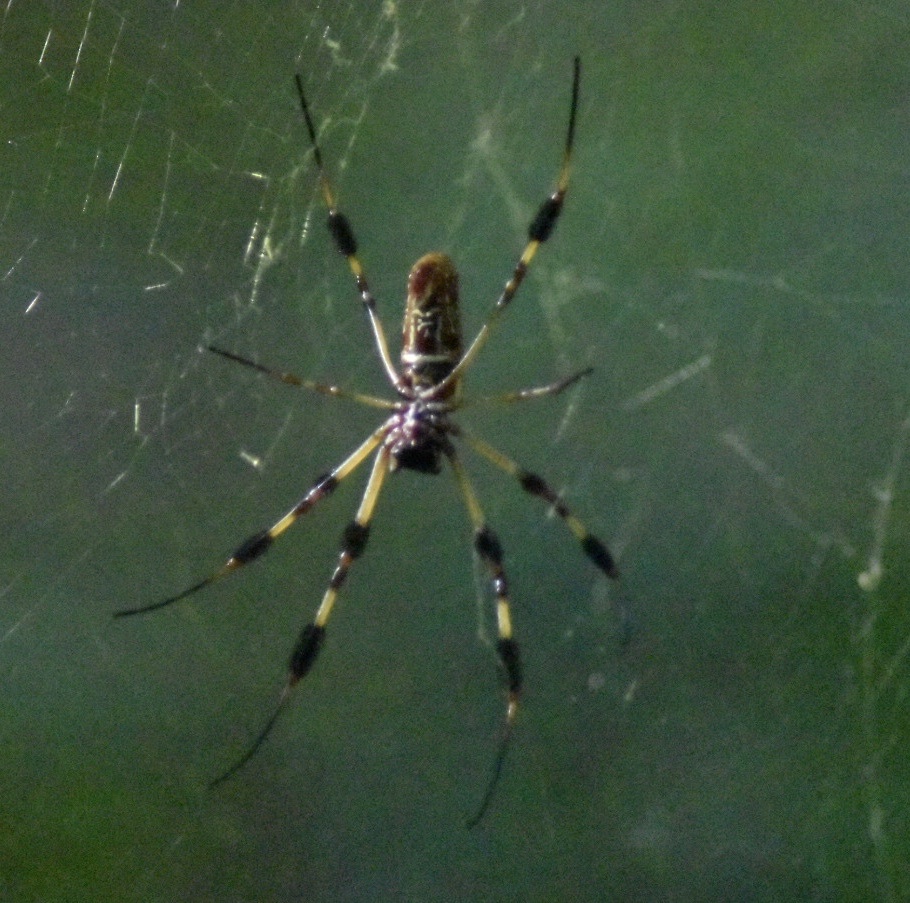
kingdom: Animalia
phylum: Arthropoda
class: Arachnida
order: Araneae
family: Araneidae
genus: Trichonephila
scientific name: Trichonephila clavipes
